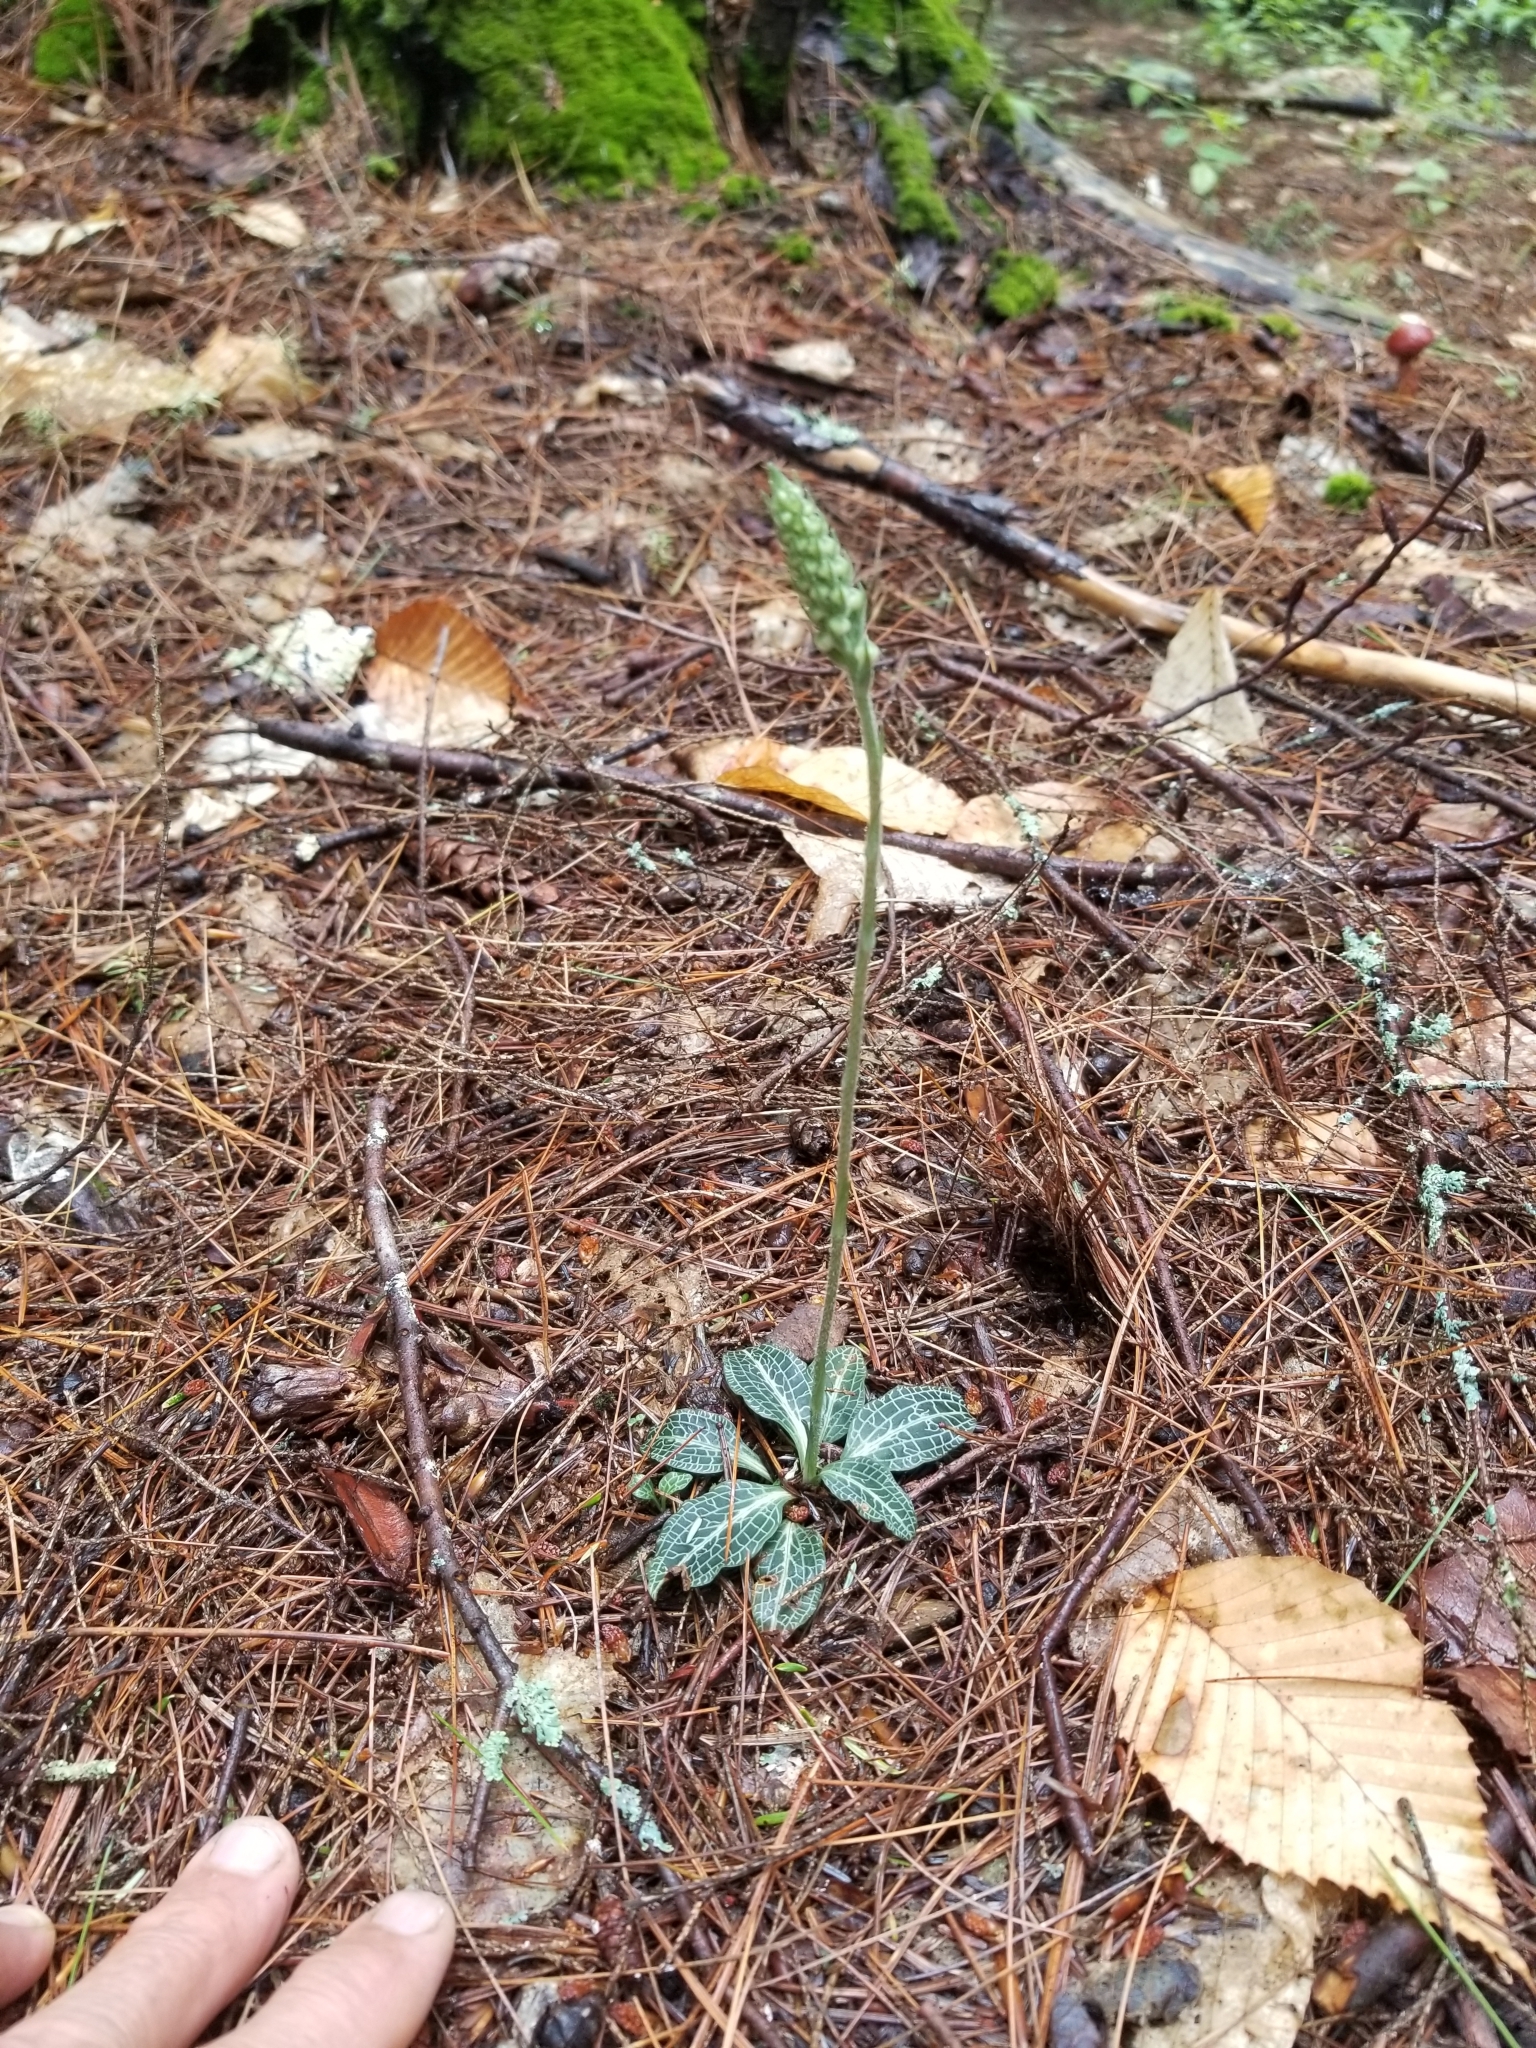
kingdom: Plantae
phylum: Tracheophyta
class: Liliopsida
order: Asparagales
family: Orchidaceae
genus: Goodyera
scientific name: Goodyera pubescens
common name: Downy rattlesnake-plantain
